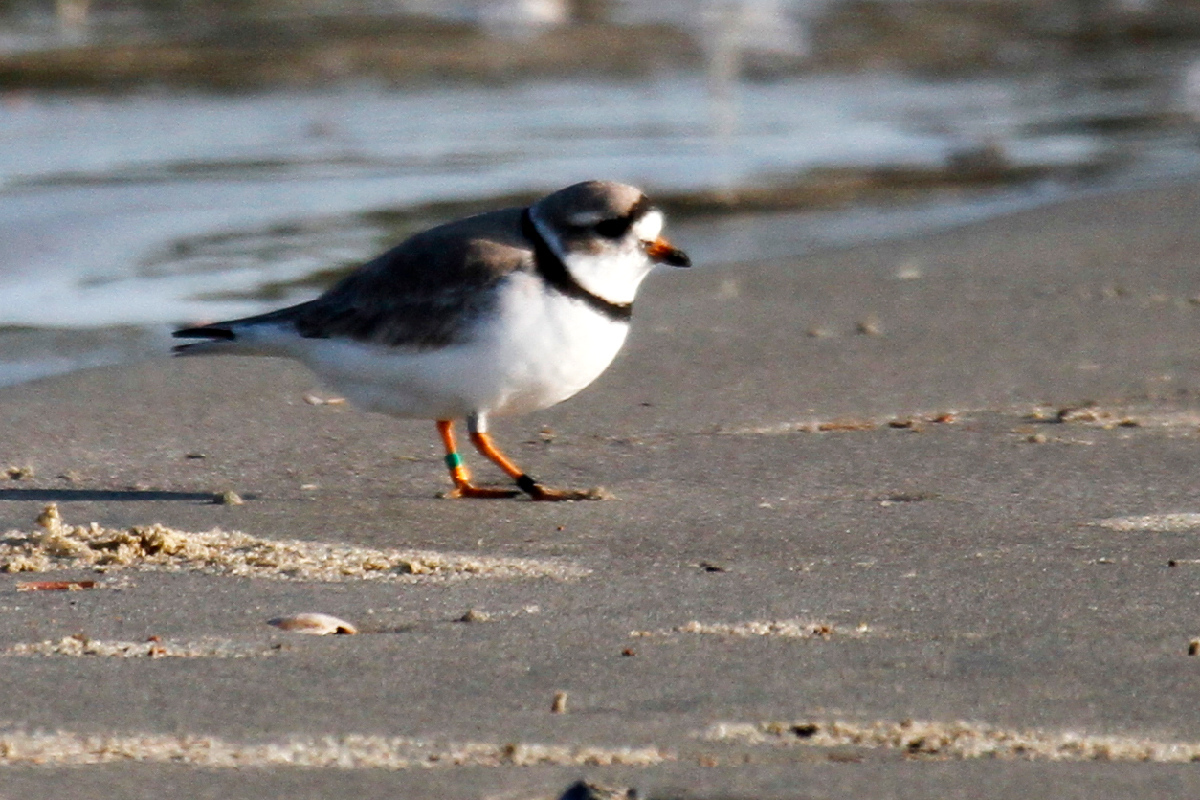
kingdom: Animalia
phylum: Chordata
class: Aves
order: Charadriiformes
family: Charadriidae
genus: Charadrius
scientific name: Charadrius melodus
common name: Piping plover
